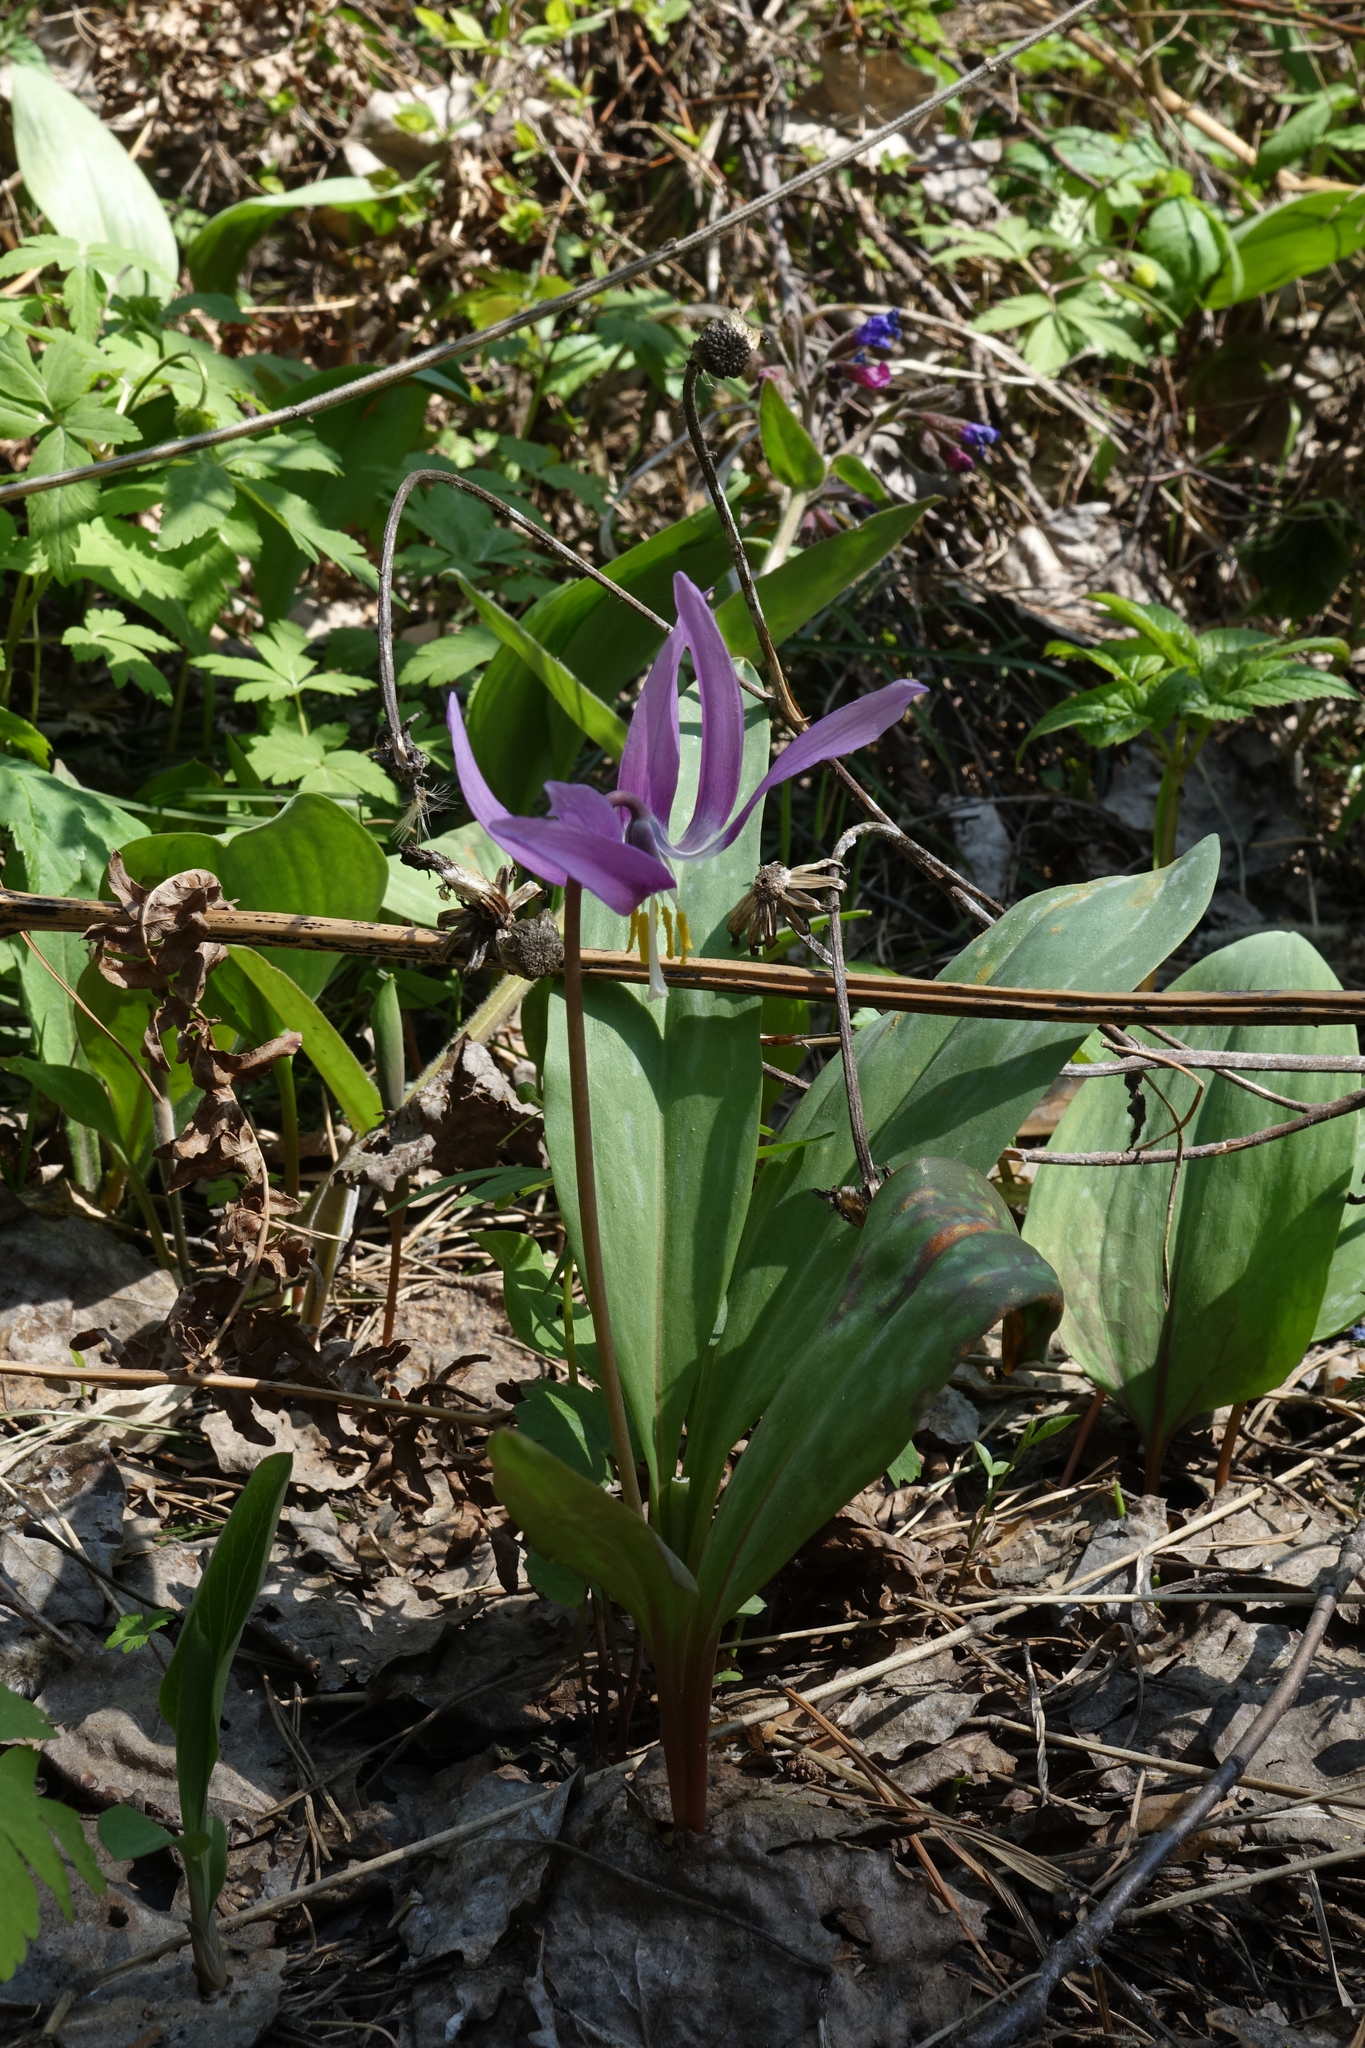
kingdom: Plantae
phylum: Tracheophyta
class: Liliopsida
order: Liliales
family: Liliaceae
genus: Erythronium
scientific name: Erythronium sibiricum
